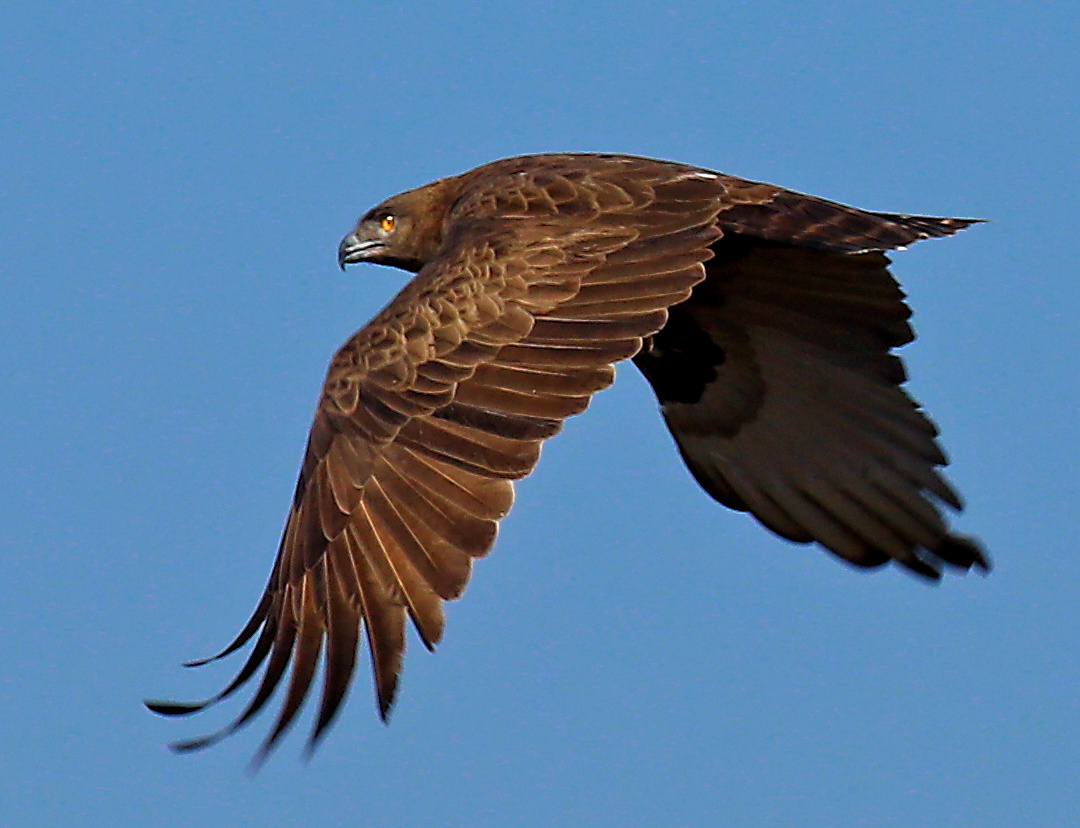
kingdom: Animalia
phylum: Chordata
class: Aves
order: Accipitriformes
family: Accipitridae
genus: Circaetus
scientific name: Circaetus cinereus
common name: Brown snake eagle
